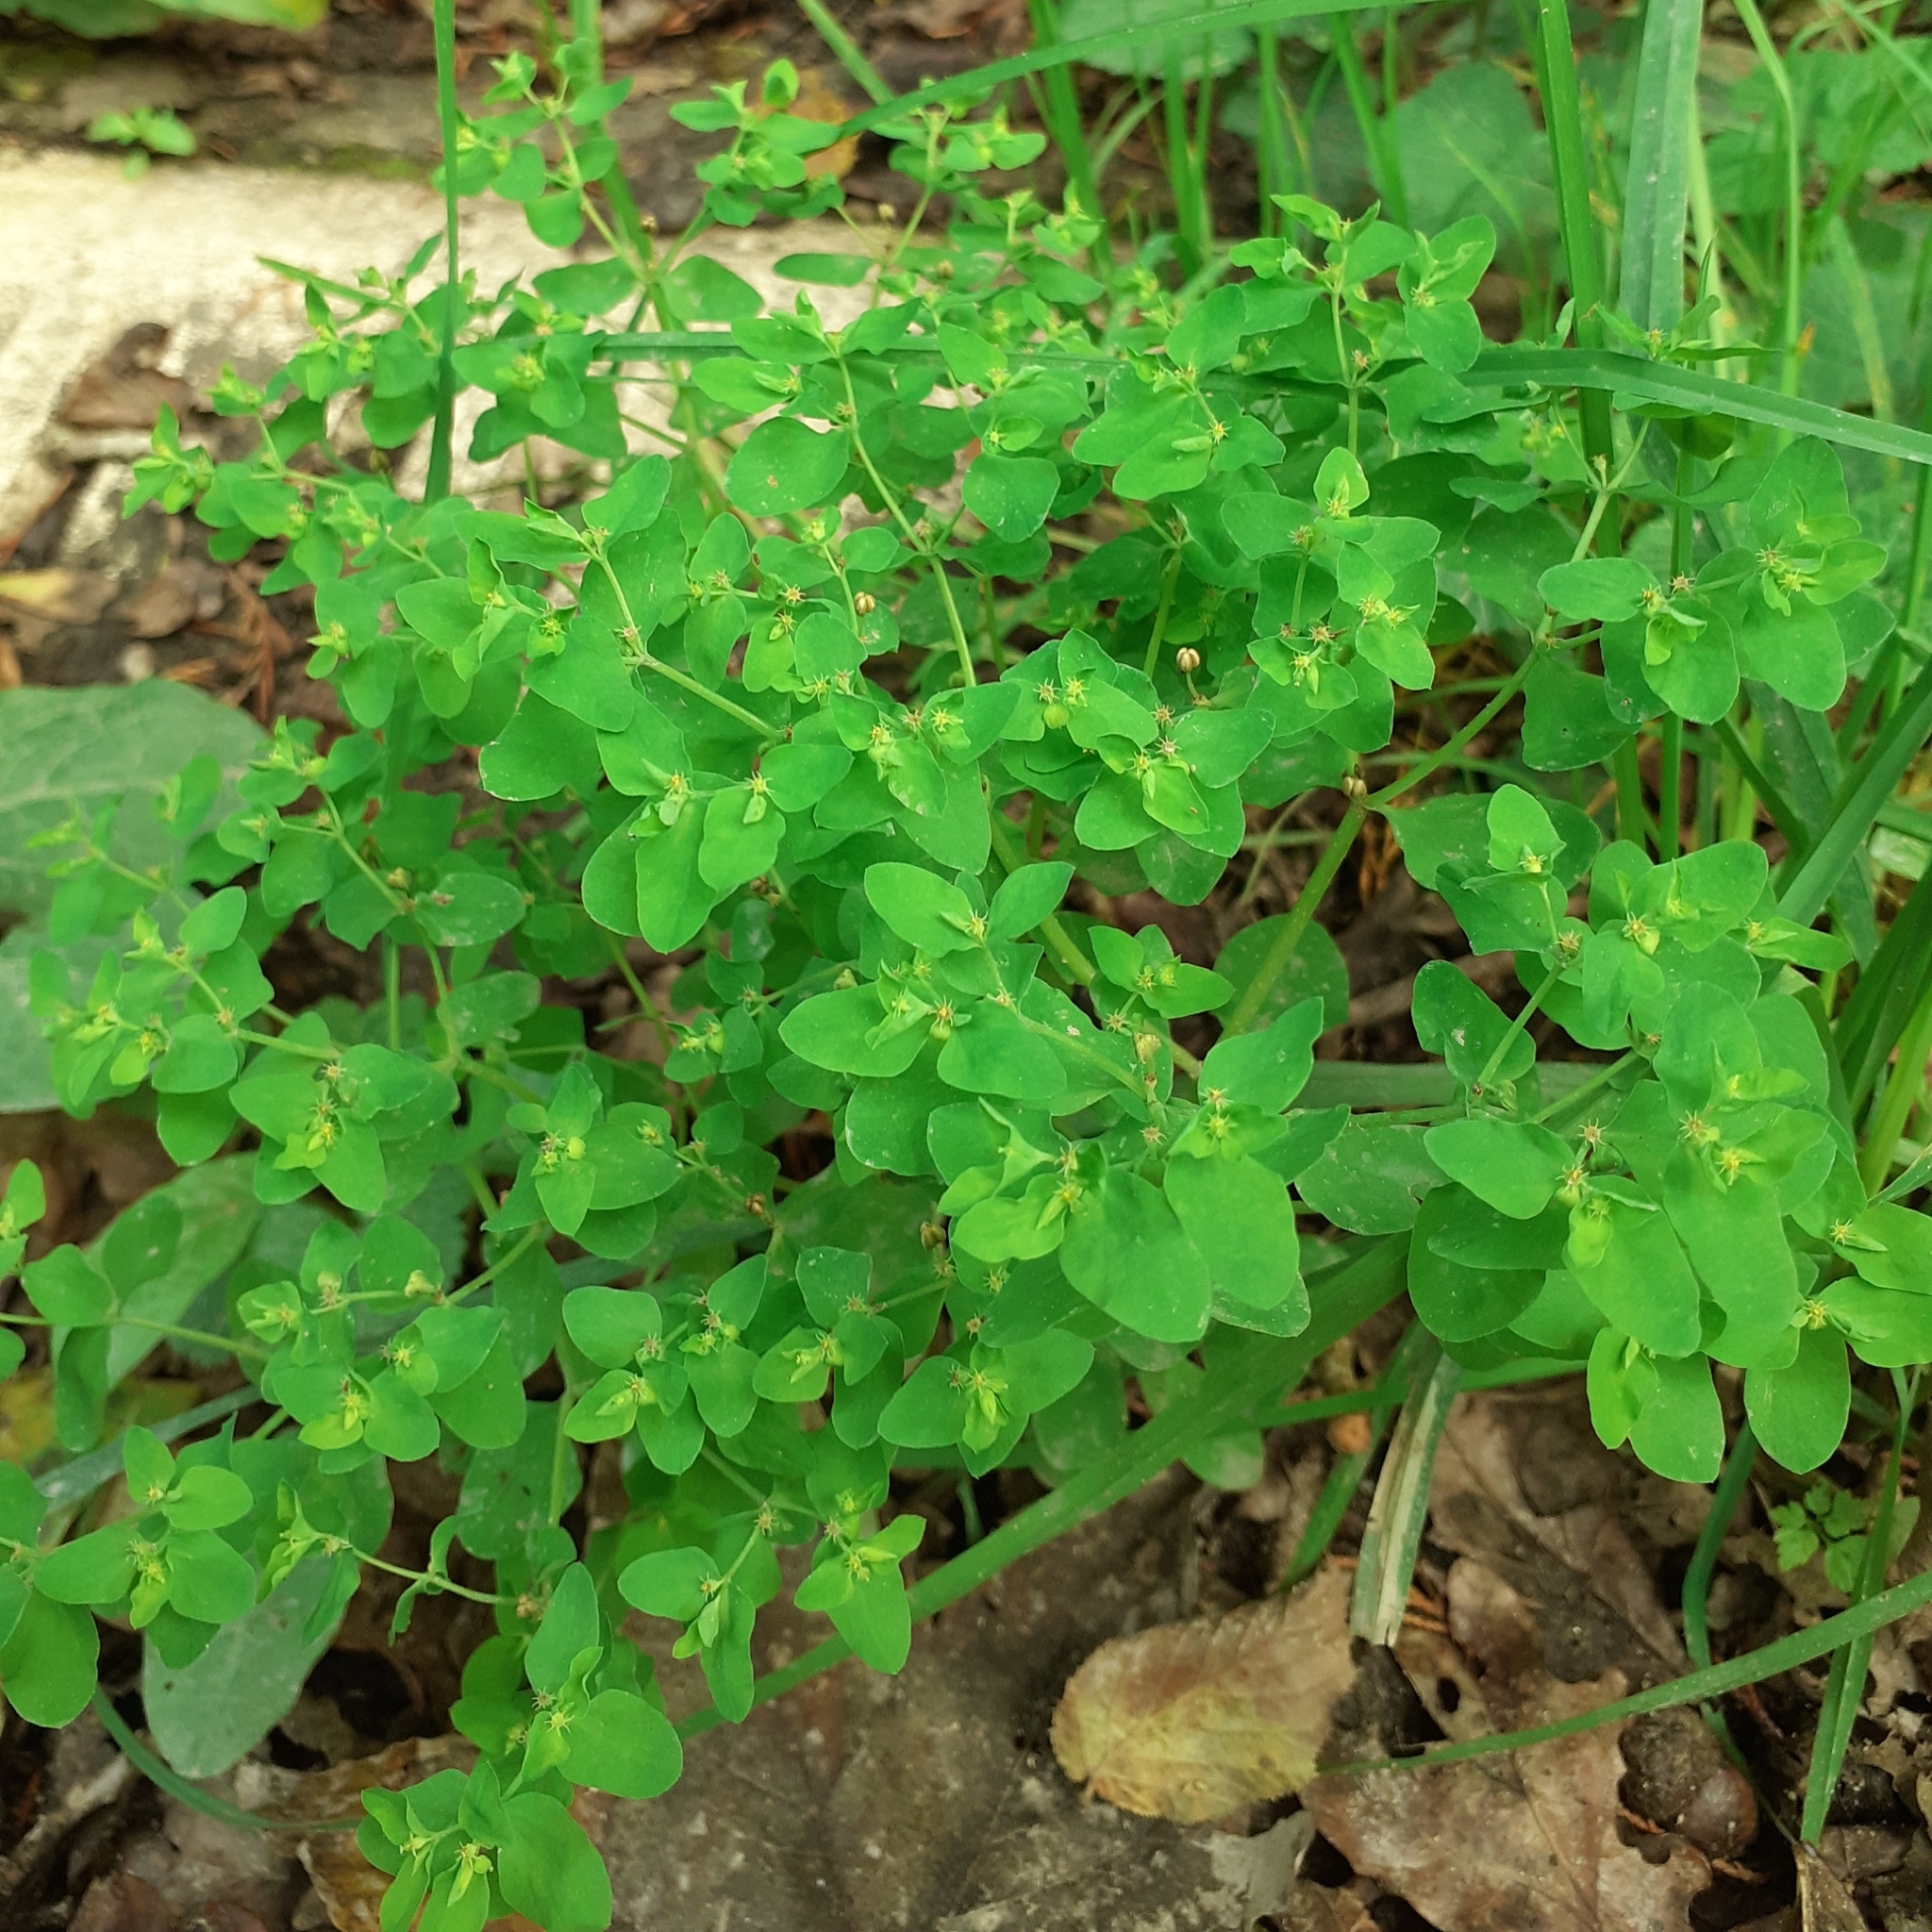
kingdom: Plantae
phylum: Tracheophyta
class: Magnoliopsida
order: Malpighiales
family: Euphorbiaceae
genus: Euphorbia
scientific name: Euphorbia peplus
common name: Petty spurge
